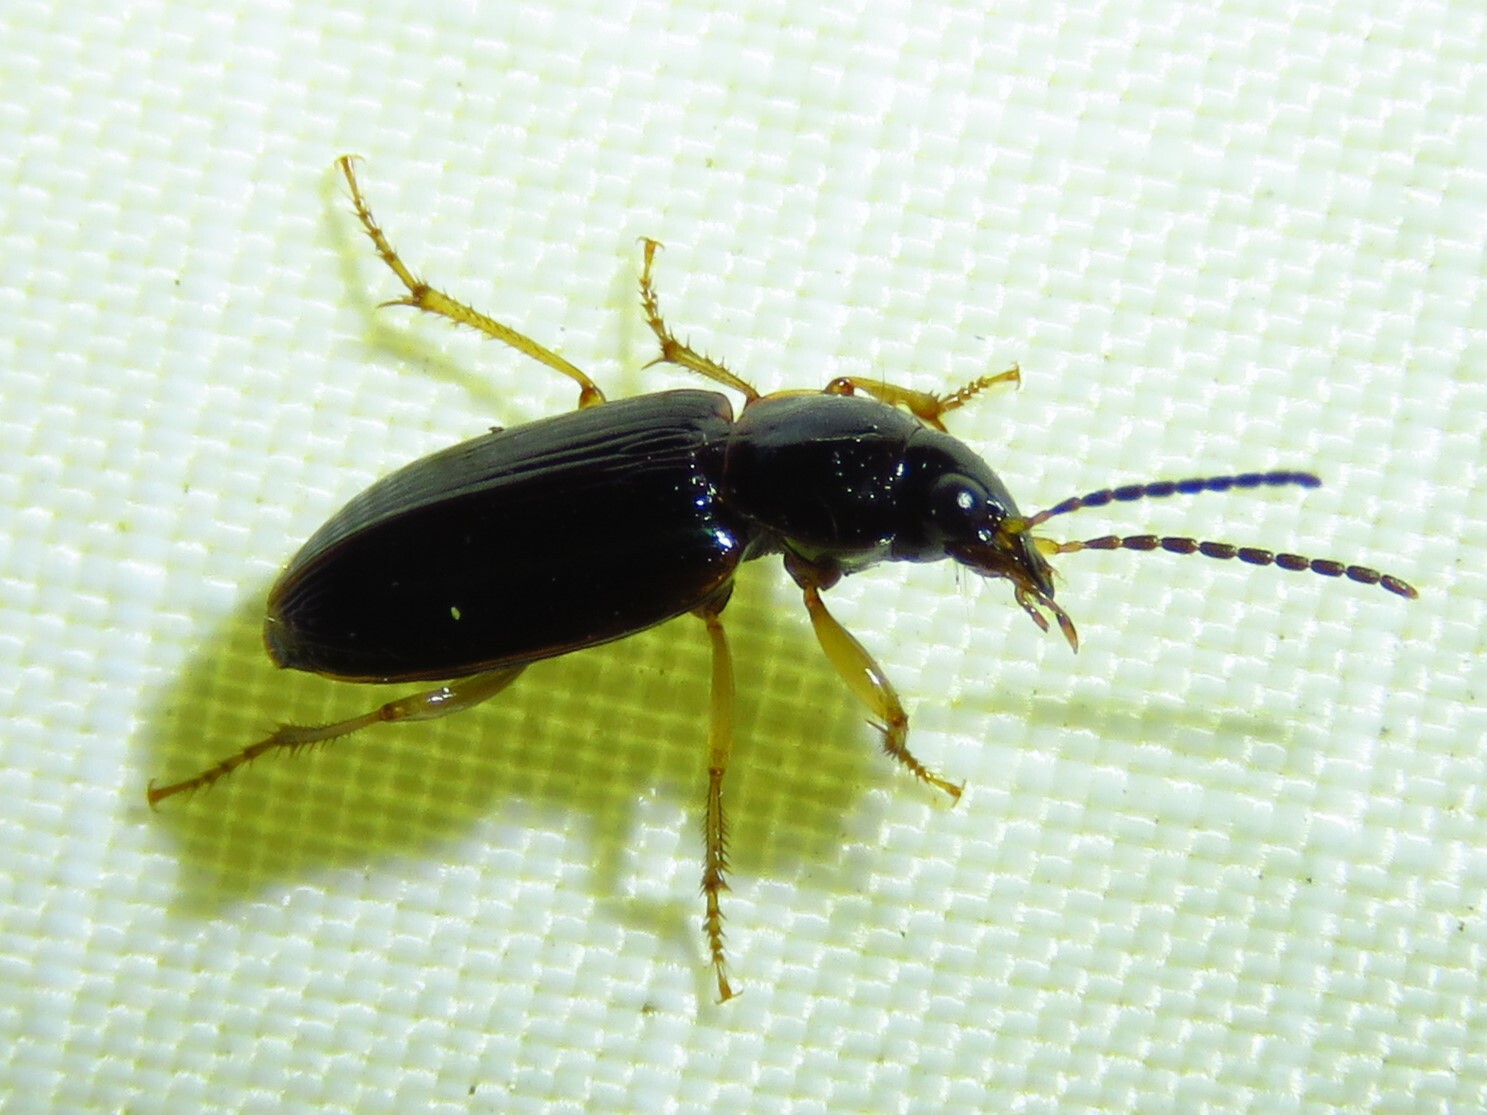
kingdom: Animalia
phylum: Arthropoda
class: Insecta
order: Coleoptera
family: Carabidae
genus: Stenolophus
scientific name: Stenolophus ochropezus
